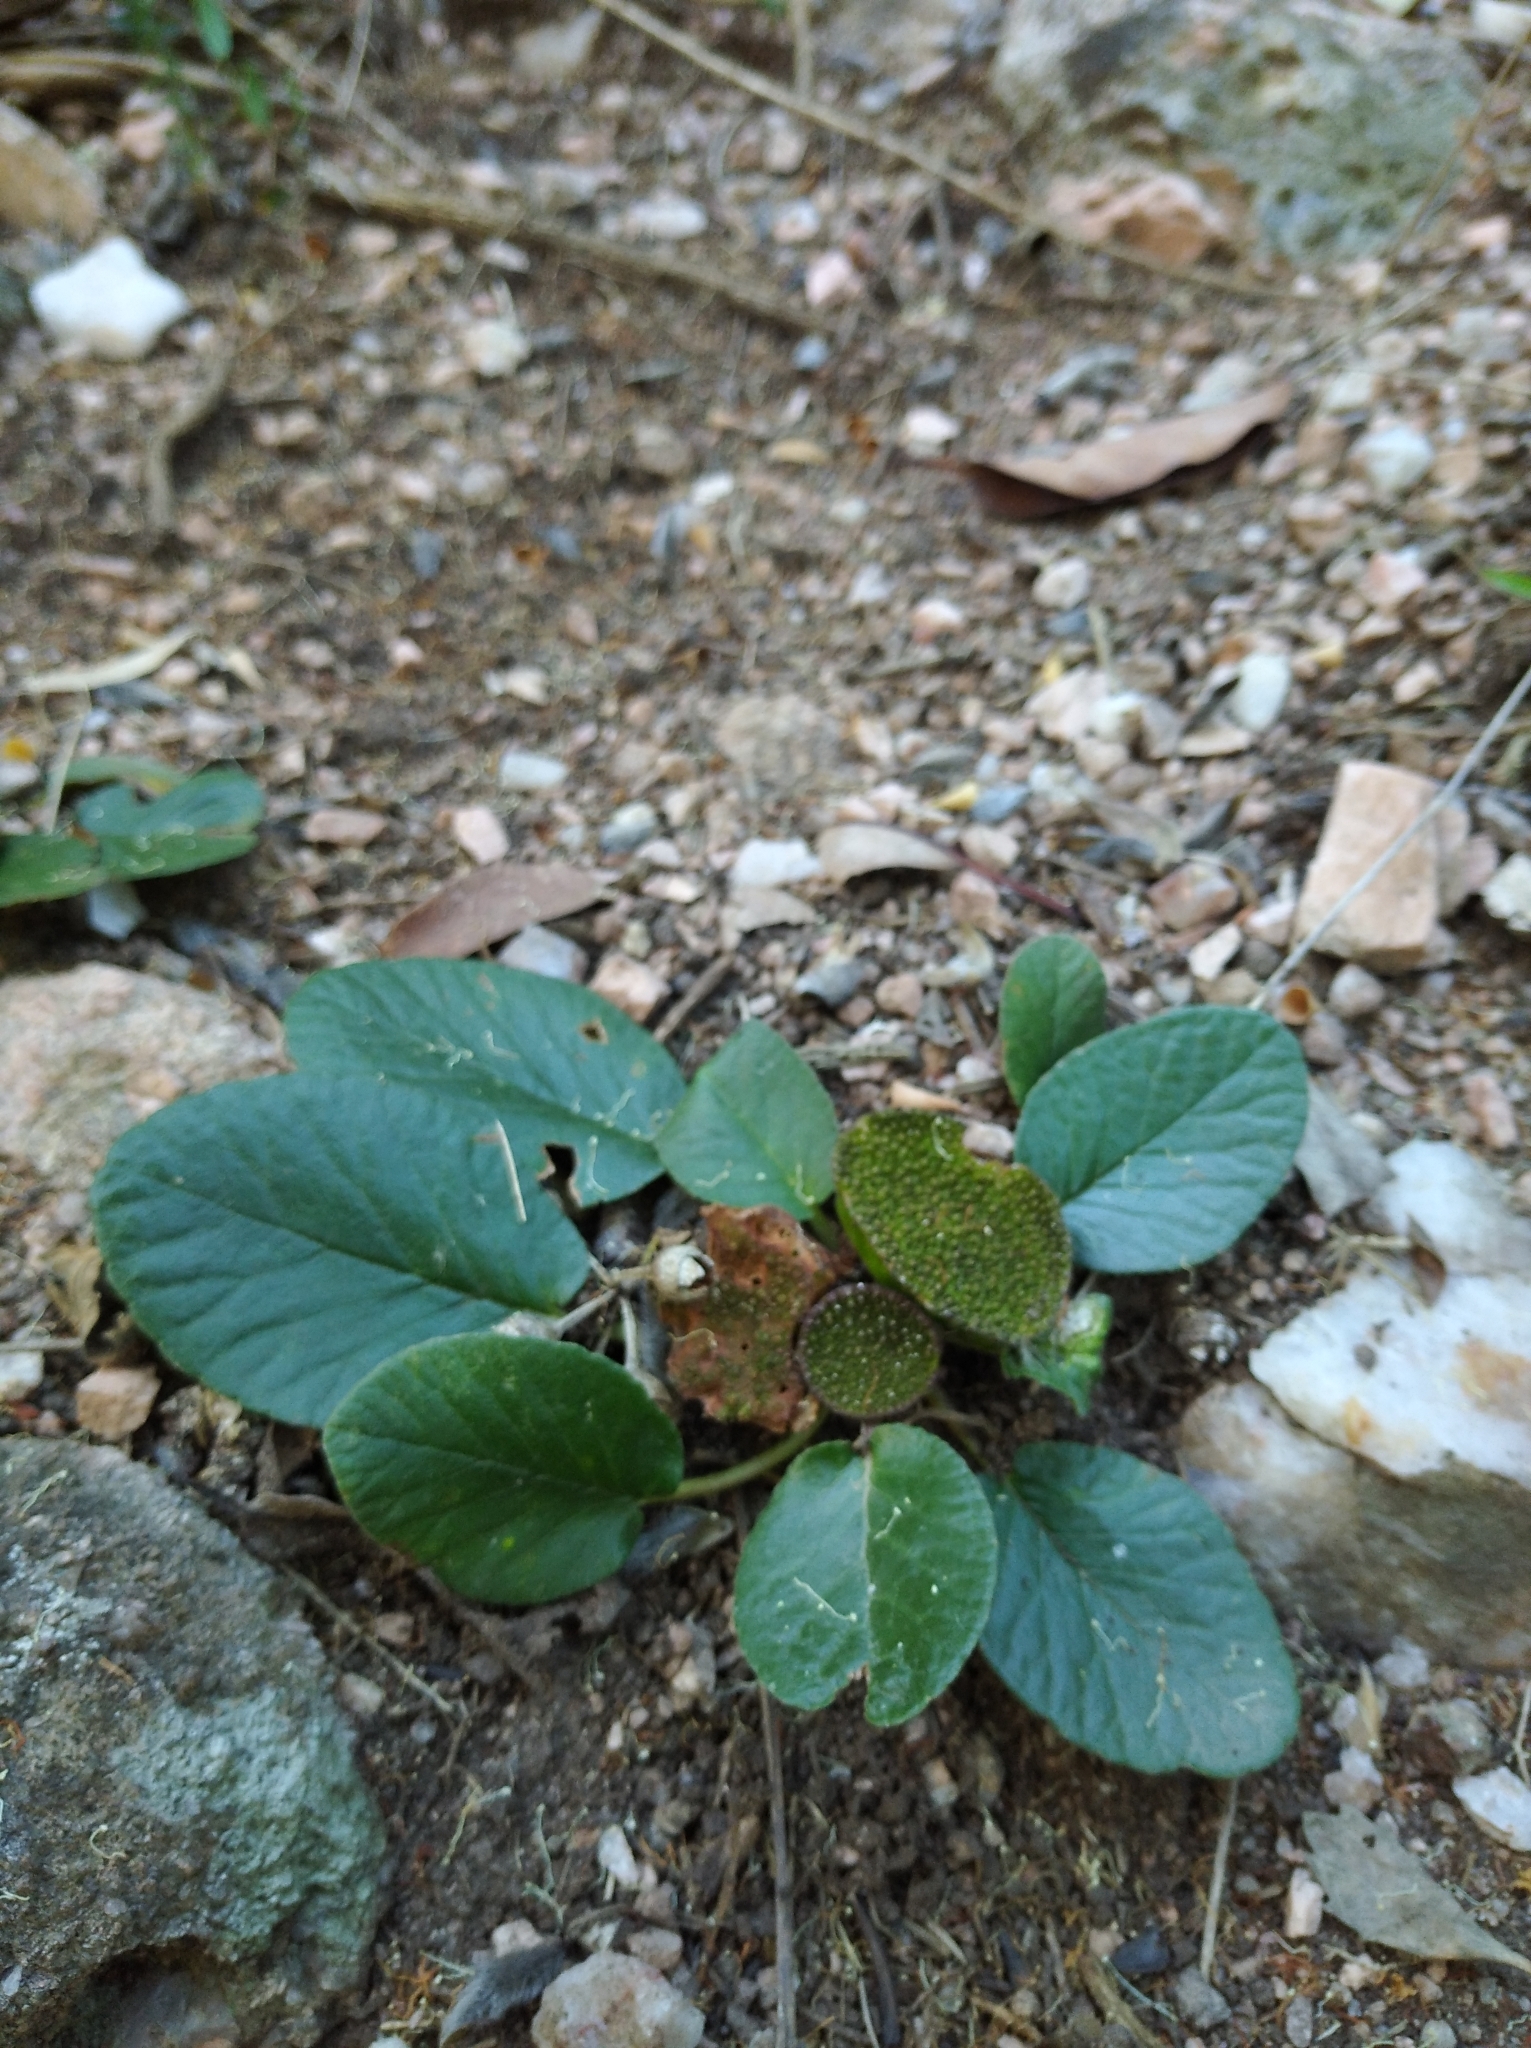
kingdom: Plantae
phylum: Tracheophyta
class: Magnoliopsida
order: Rosales
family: Moraceae
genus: Dorstenia
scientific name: Dorstenia brasiliensis
